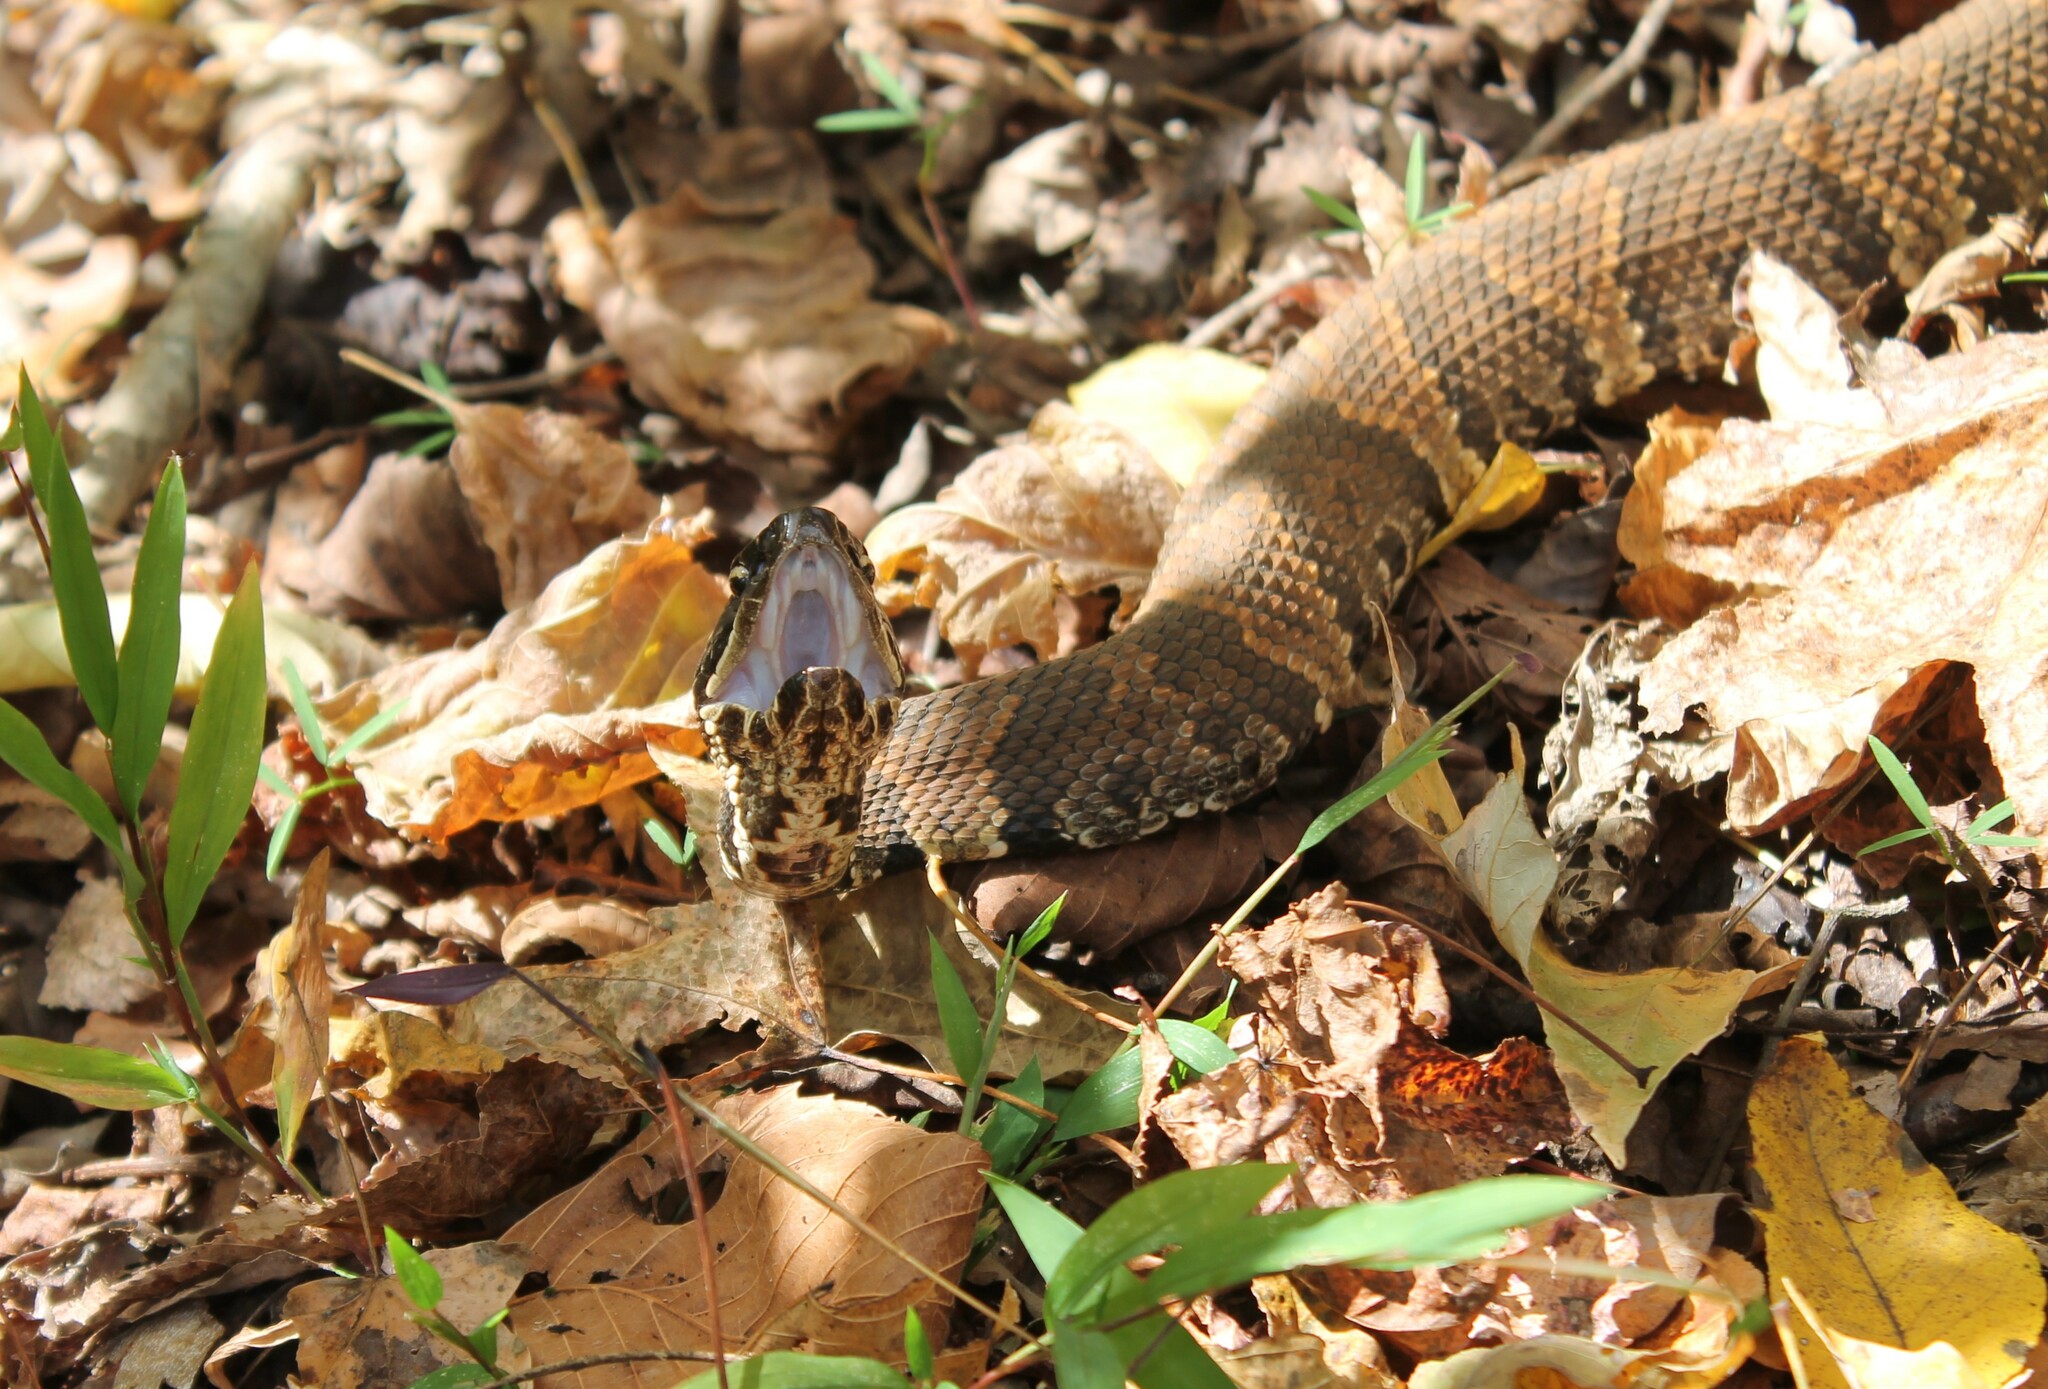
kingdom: Animalia
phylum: Chordata
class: Squamata
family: Viperidae
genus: Agkistrodon
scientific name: Agkistrodon piscivorus
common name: Cottonmouth
